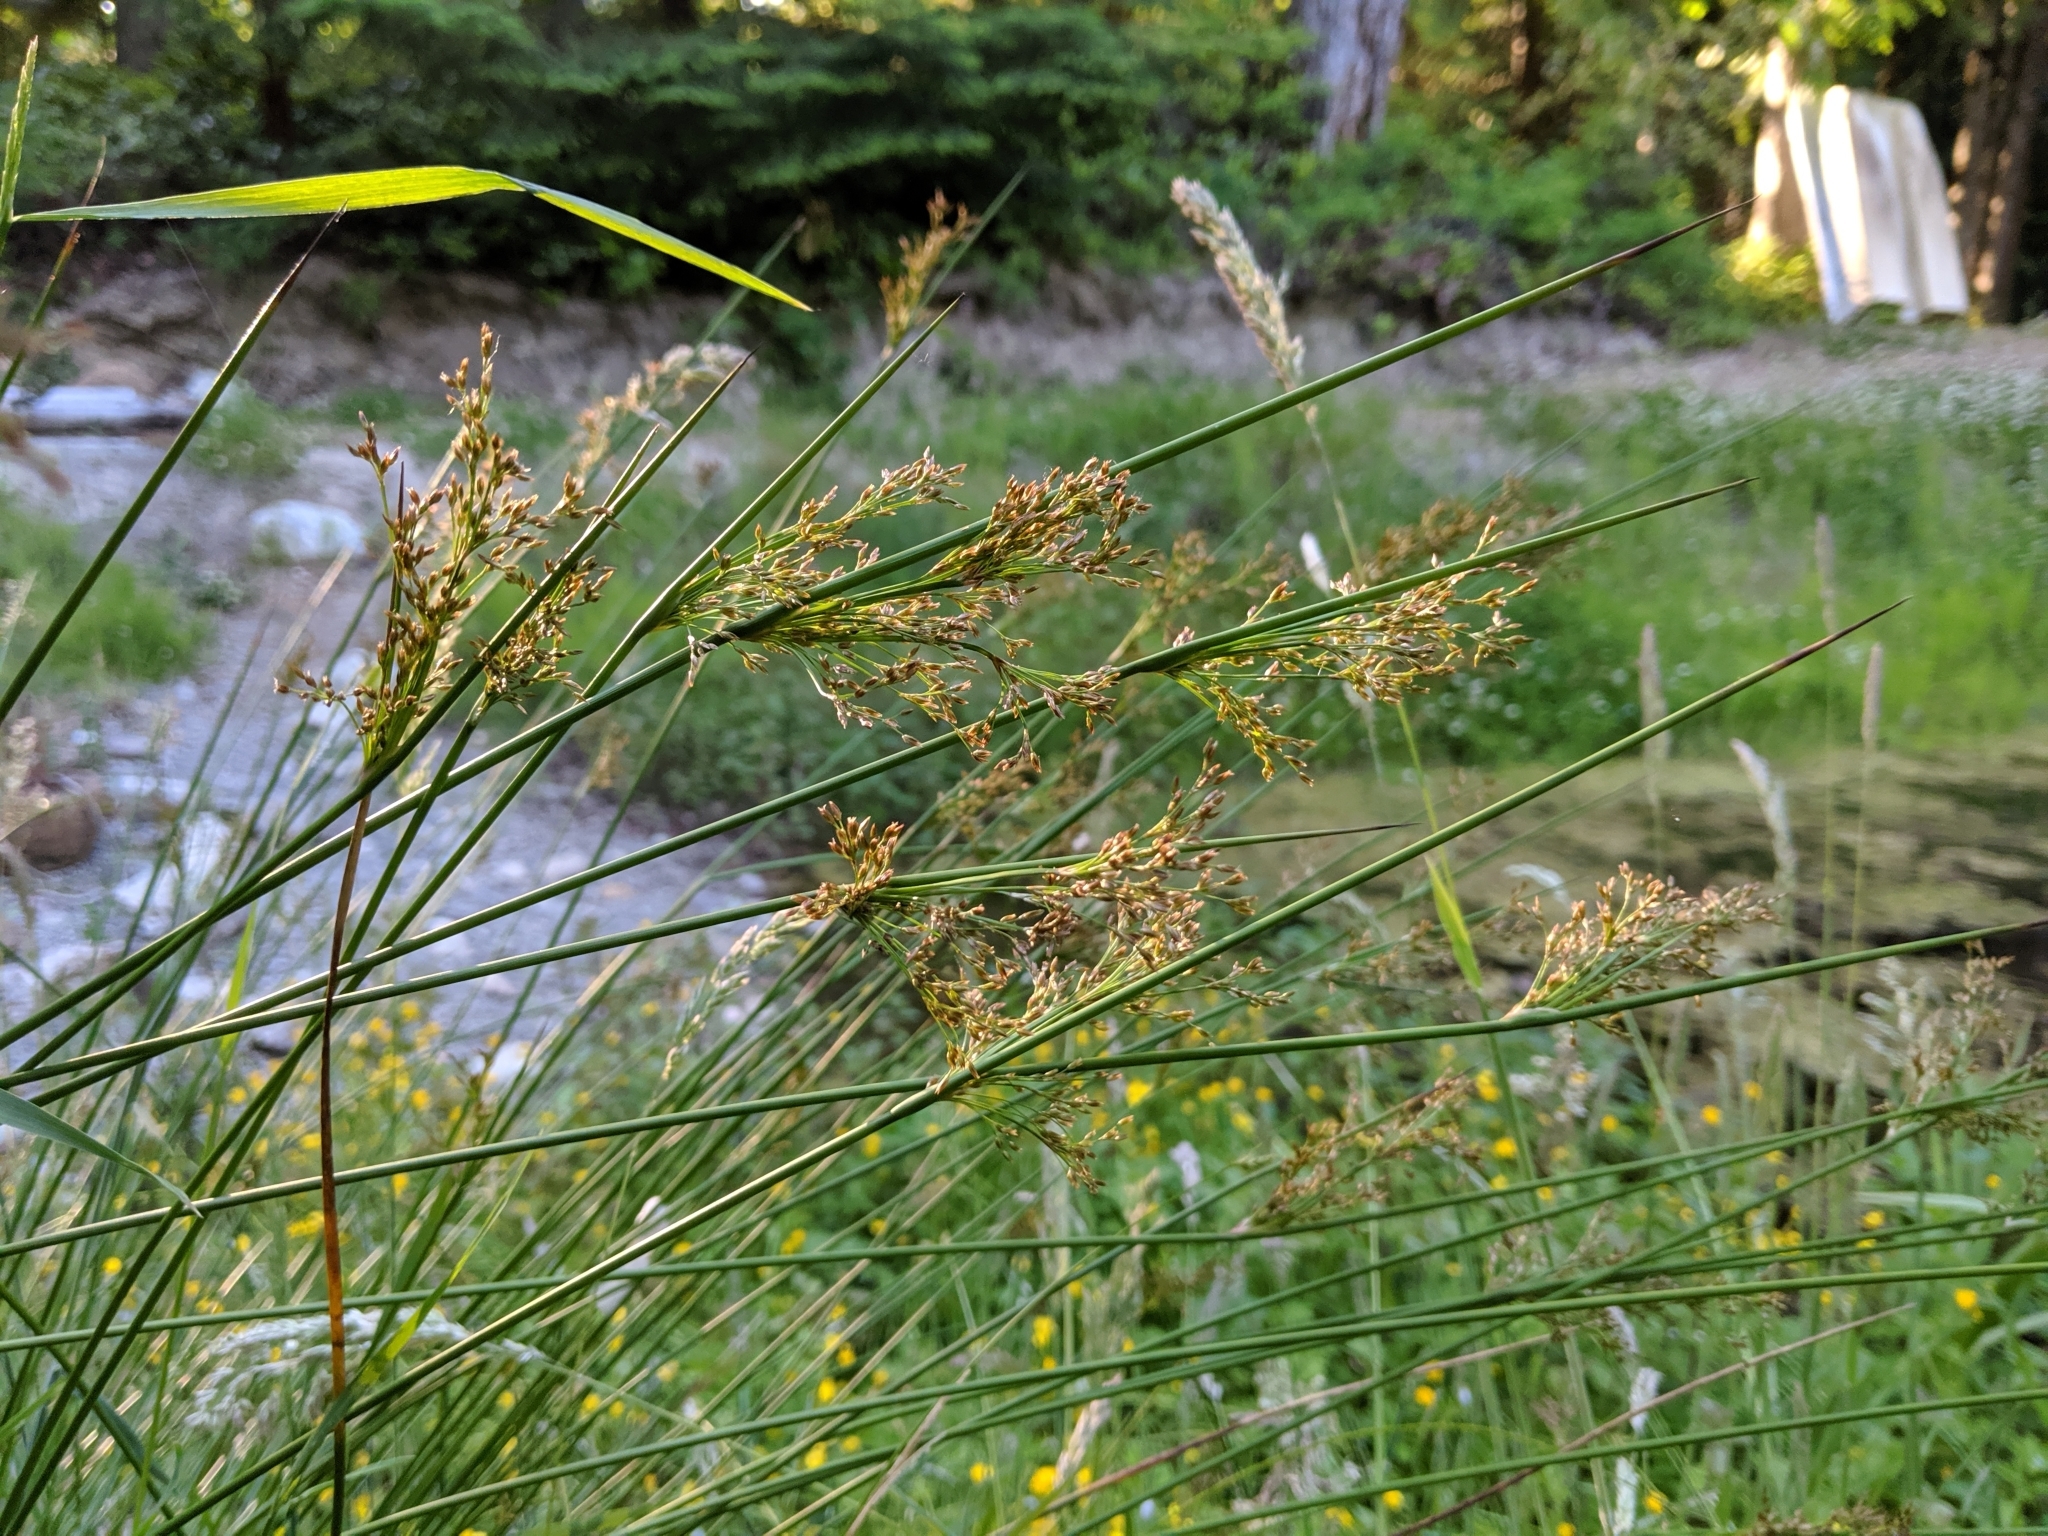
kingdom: Plantae
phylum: Tracheophyta
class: Liliopsida
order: Poales
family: Juncaceae
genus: Juncus
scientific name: Juncus effusus
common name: Soft rush
